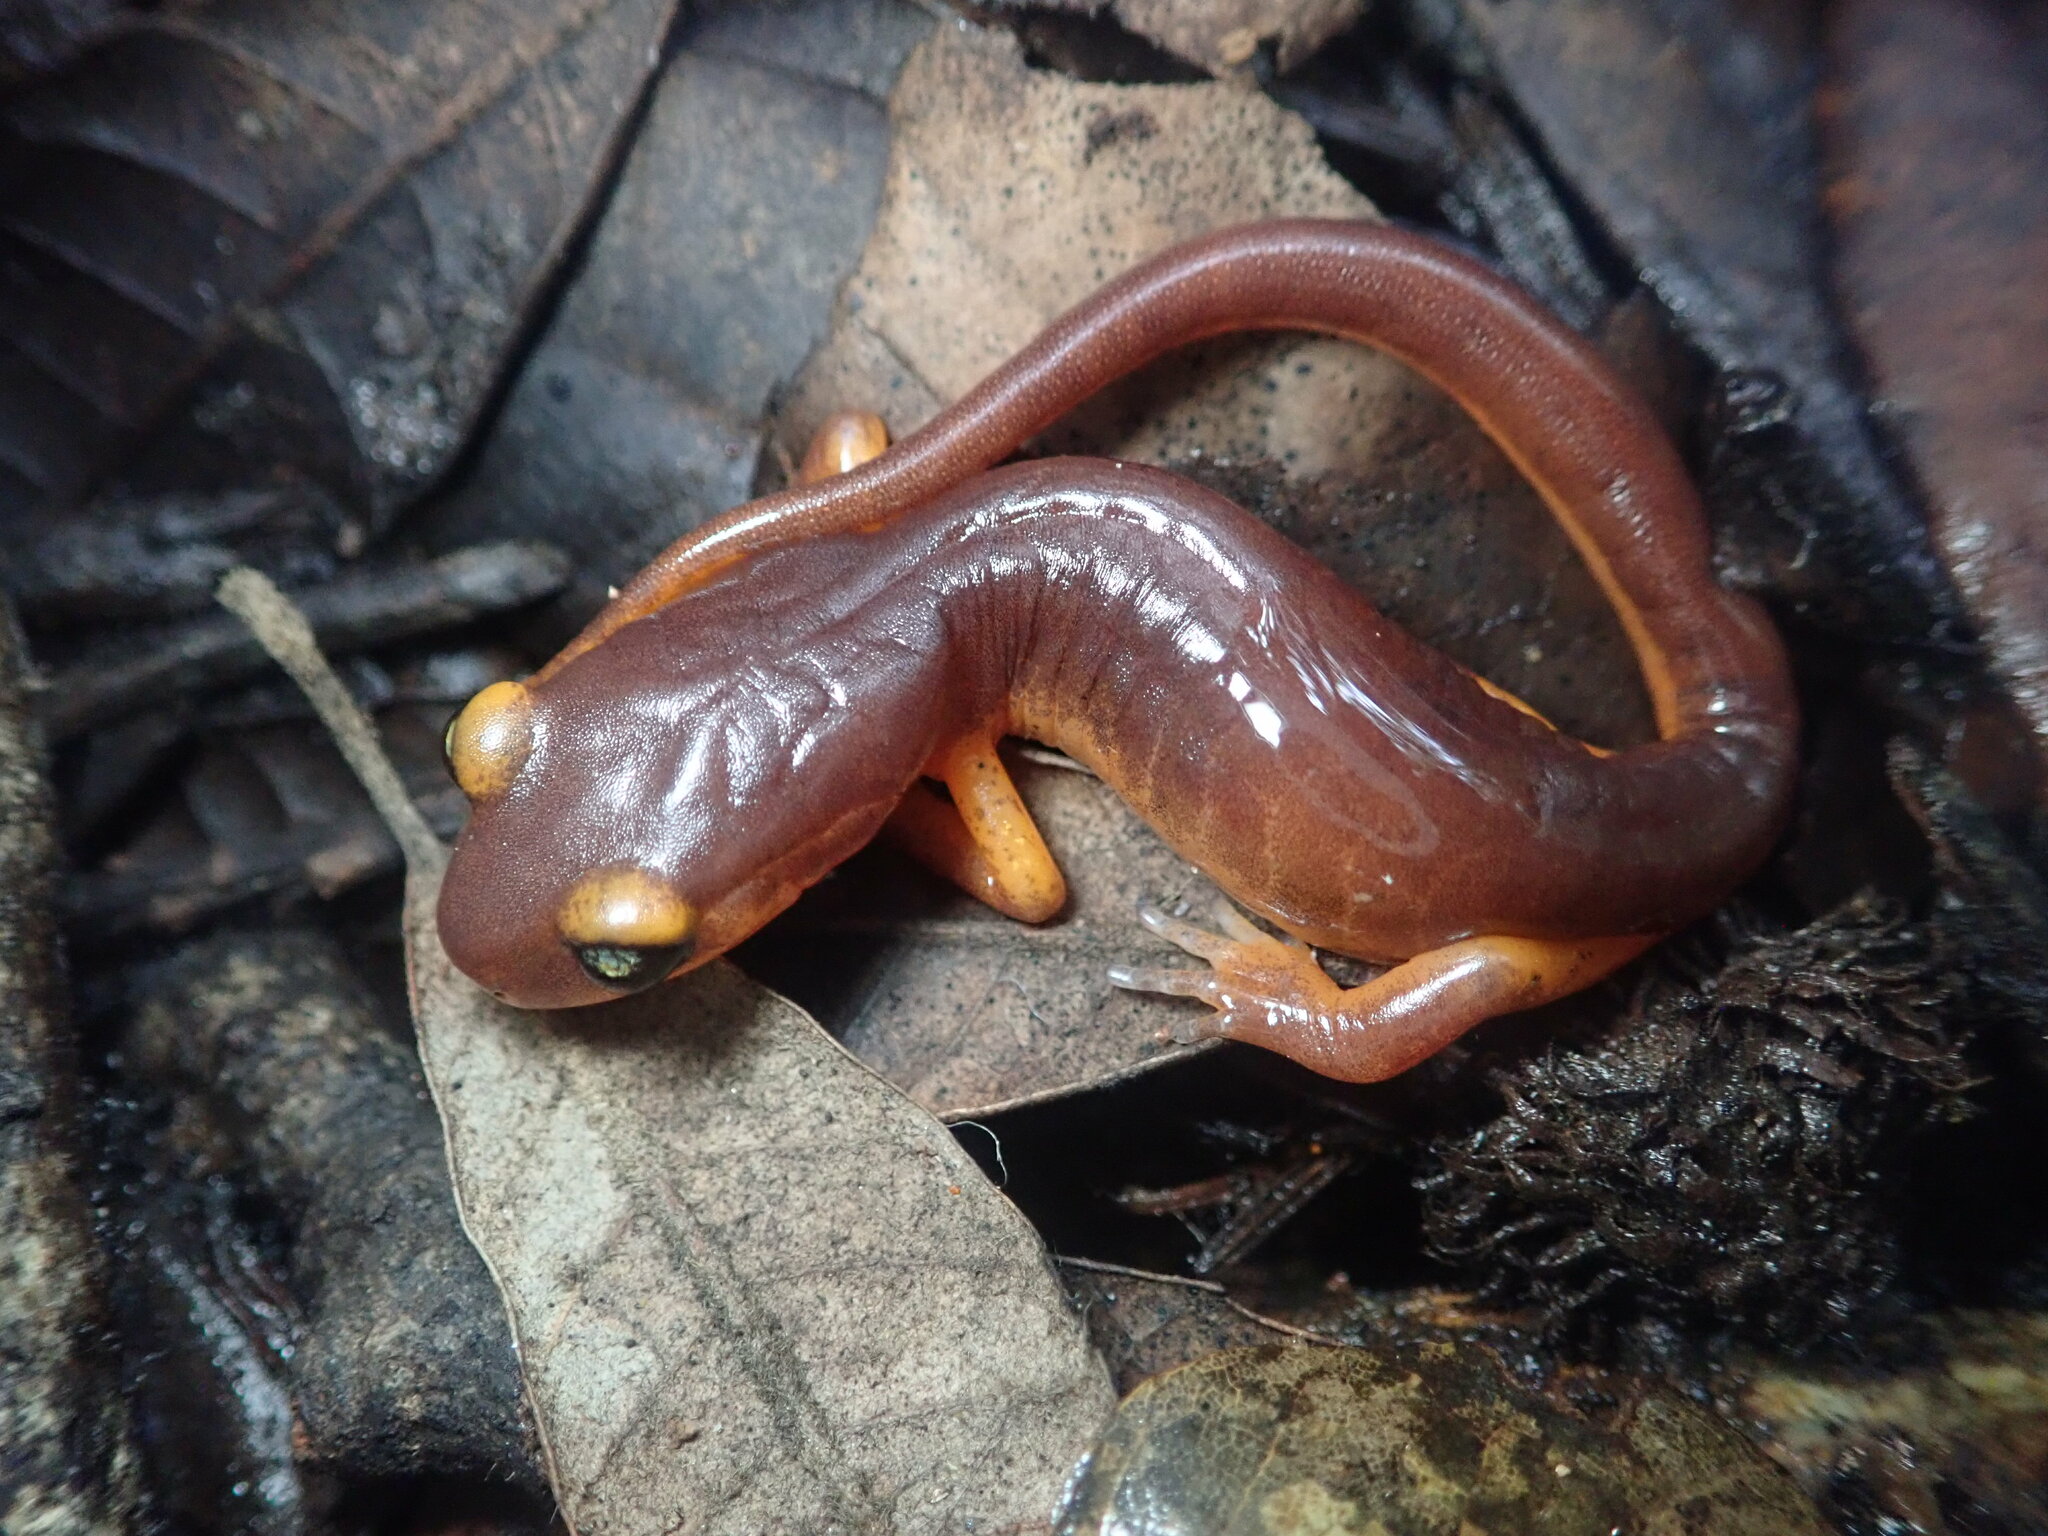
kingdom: Animalia
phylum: Chordata
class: Amphibia
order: Caudata
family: Plethodontidae
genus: Ensatina
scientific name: Ensatina eschscholtzii
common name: Ensatina
